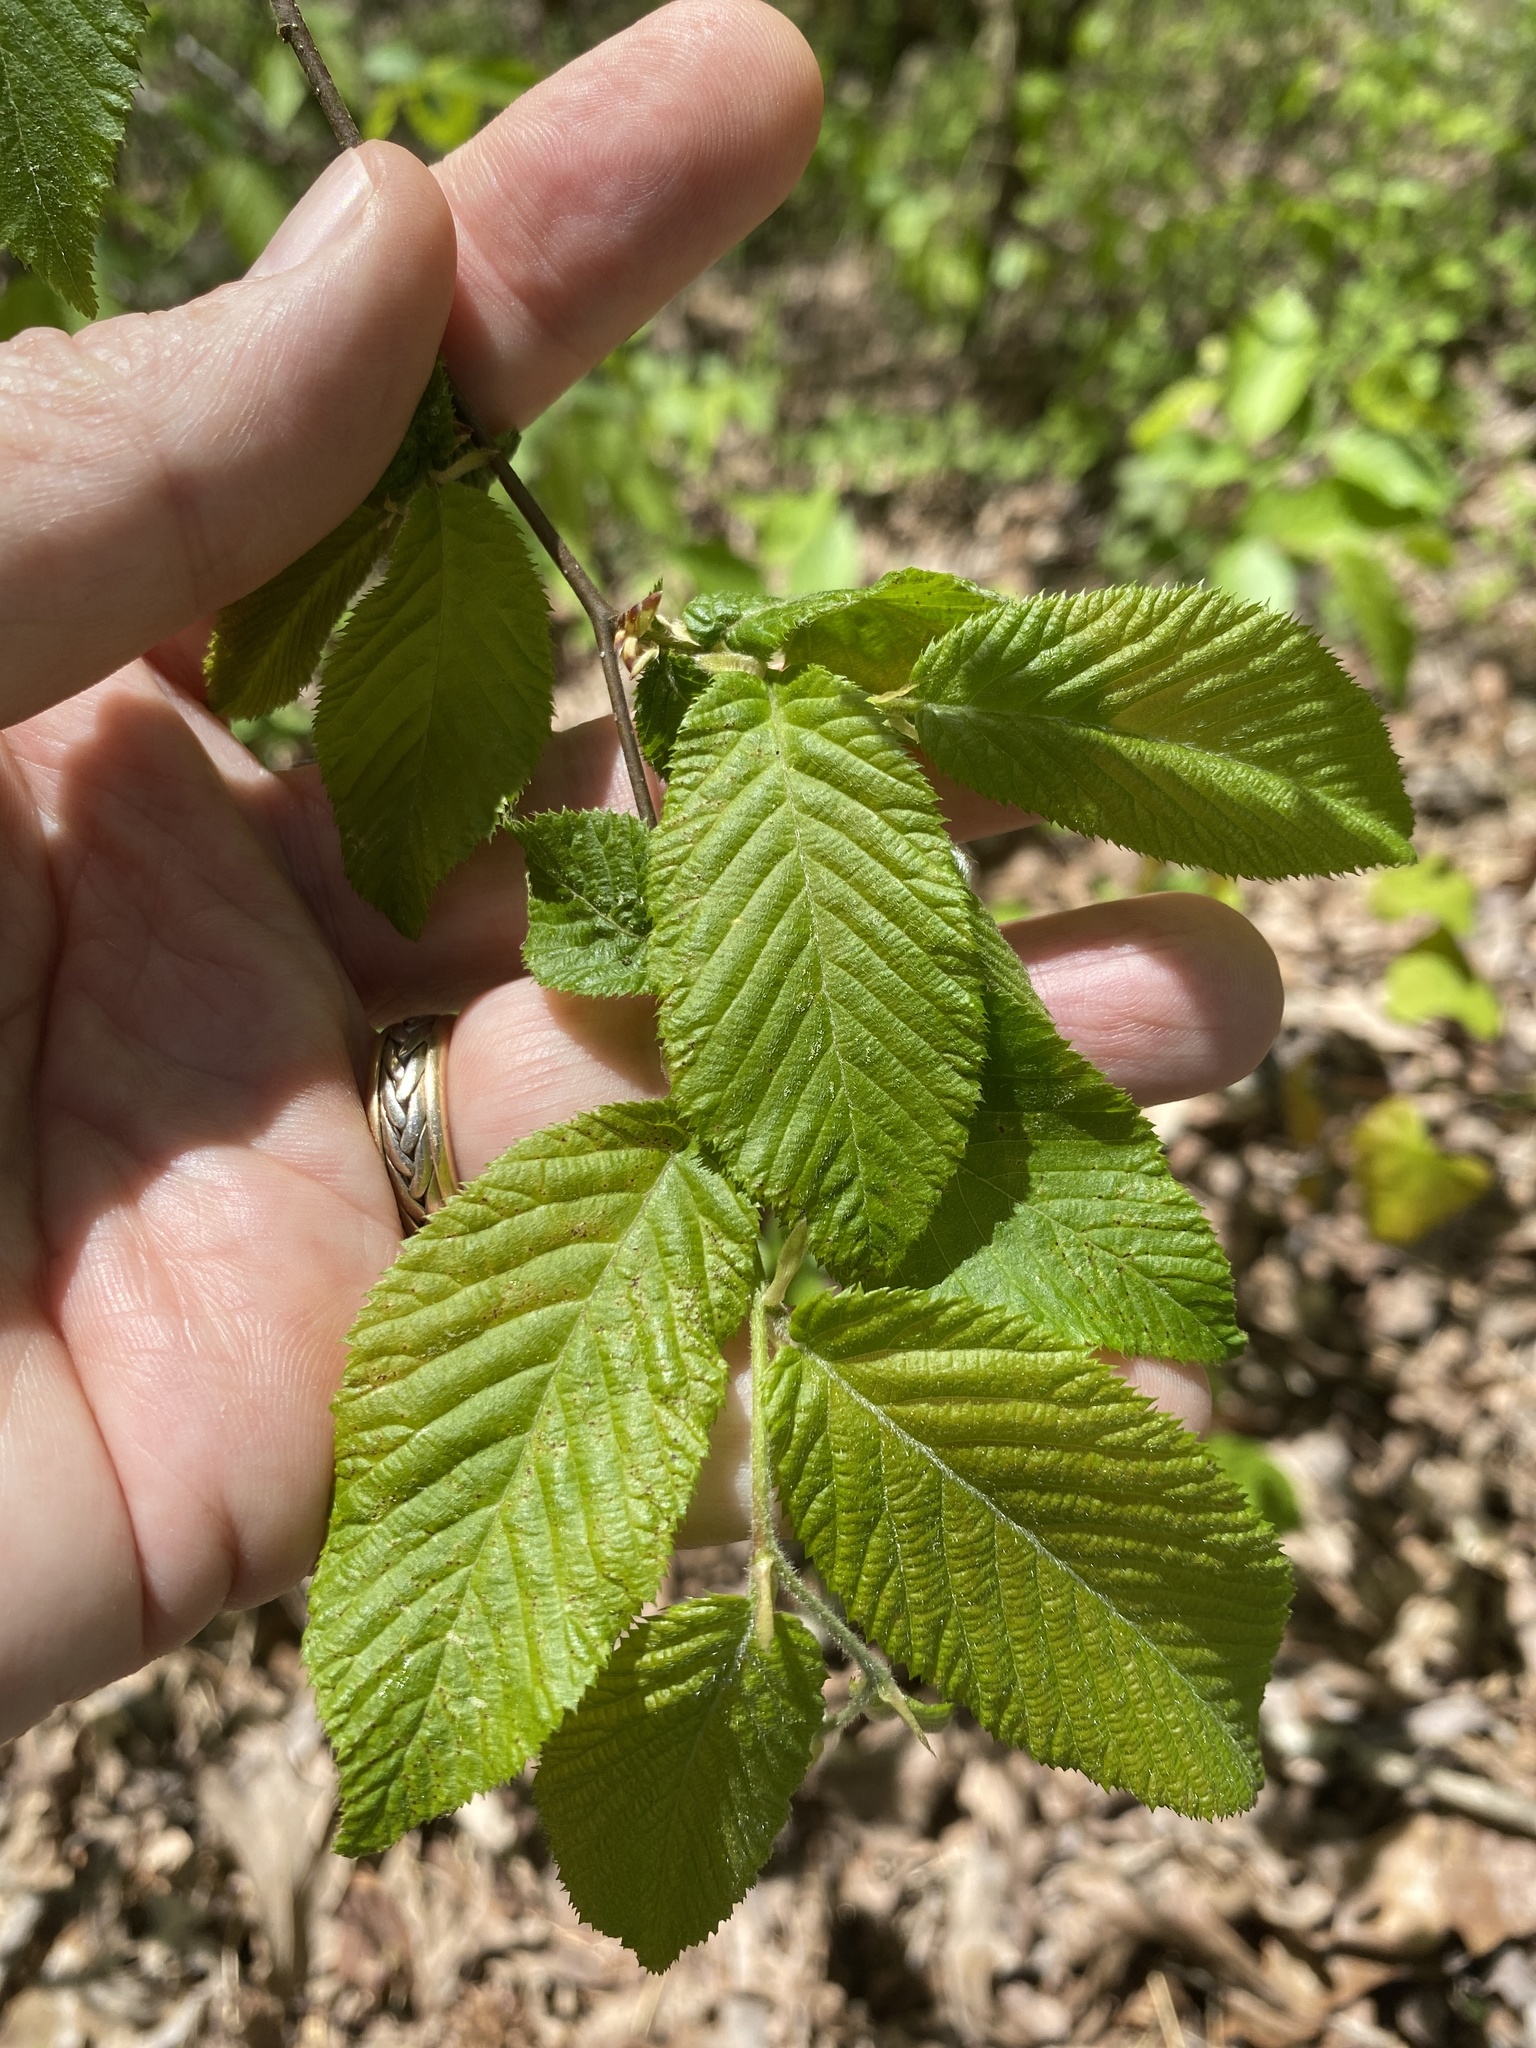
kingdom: Plantae
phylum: Tracheophyta
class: Magnoliopsida
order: Fagales
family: Betulaceae
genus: Ostrya
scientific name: Ostrya virginiana
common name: Ironwood
